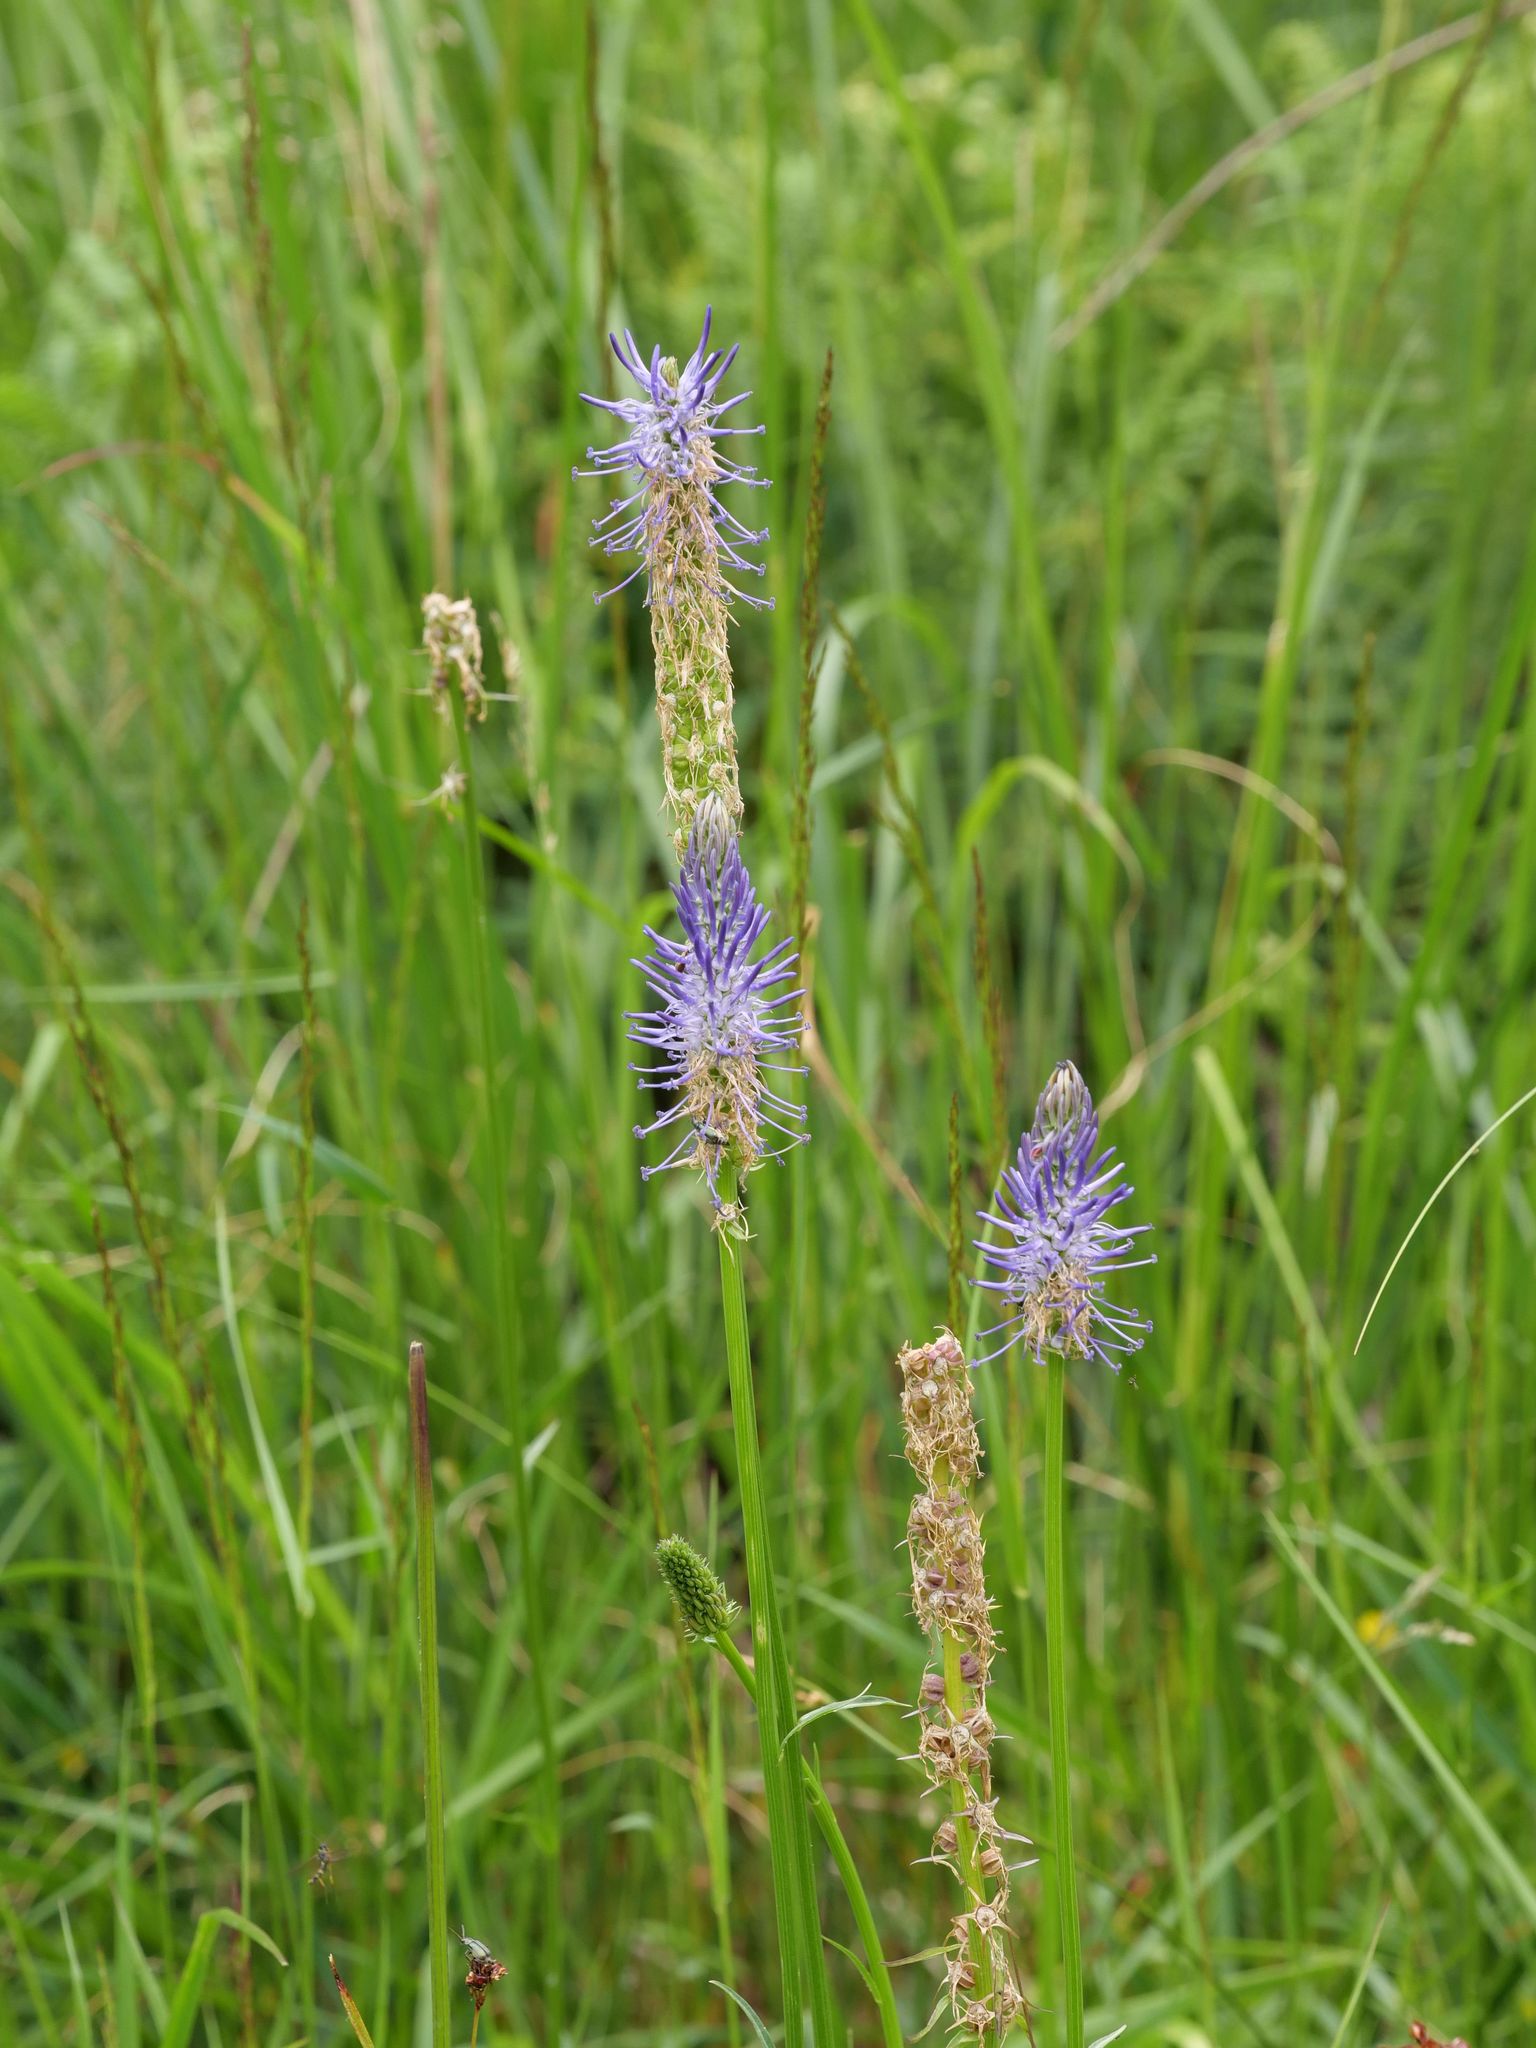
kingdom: Plantae
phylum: Tracheophyta
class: Magnoliopsida
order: Asterales
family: Campanulaceae
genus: Phyteuma
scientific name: Phyteuma betonicifolium
